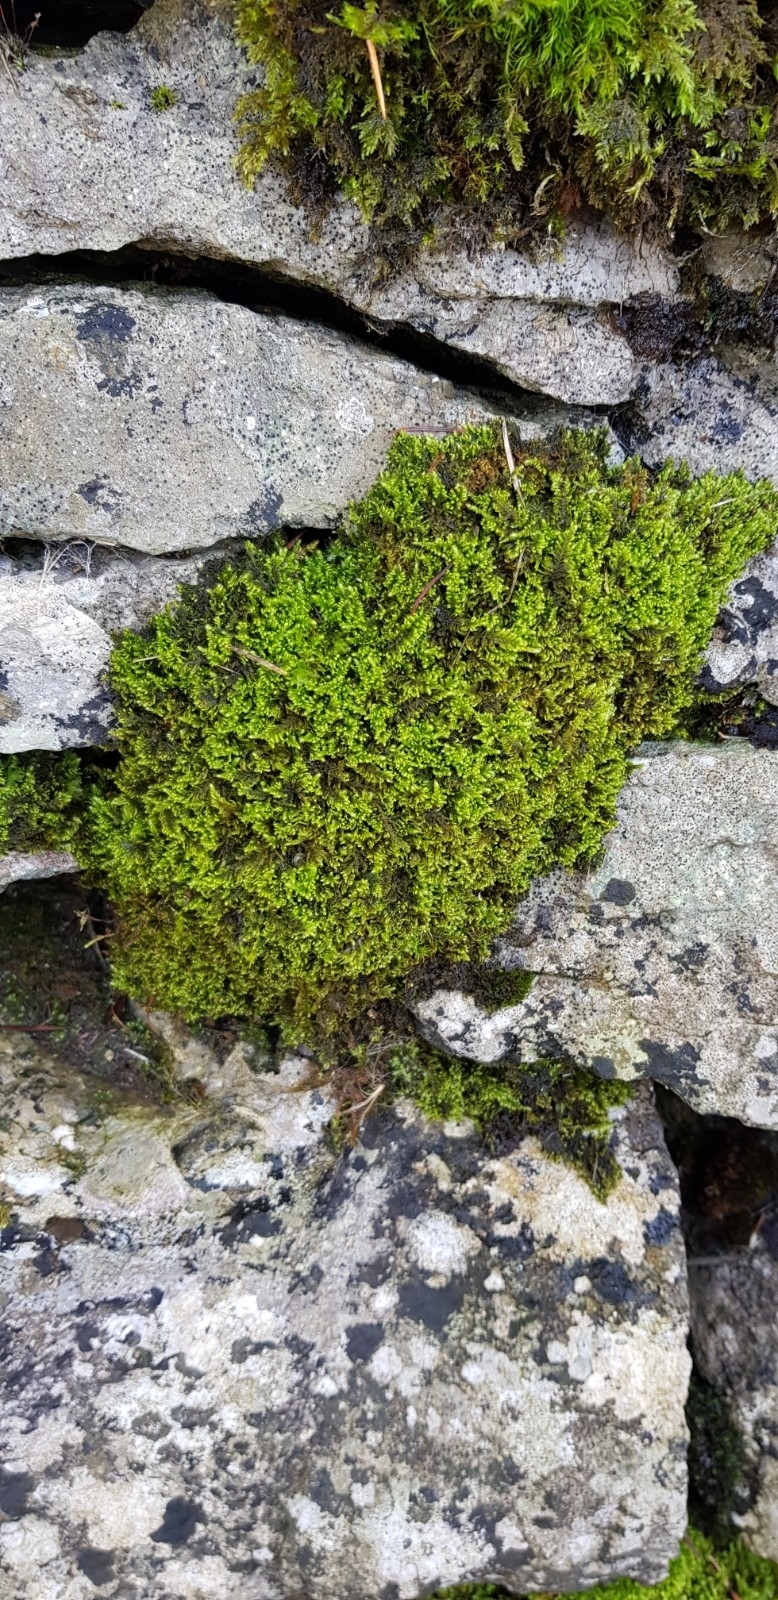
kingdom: Plantae
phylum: Bryophyta
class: Bryopsida
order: Hypnales
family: Myuriaceae
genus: Ctenidium
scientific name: Ctenidium molluscum
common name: Chalk comb-moss
